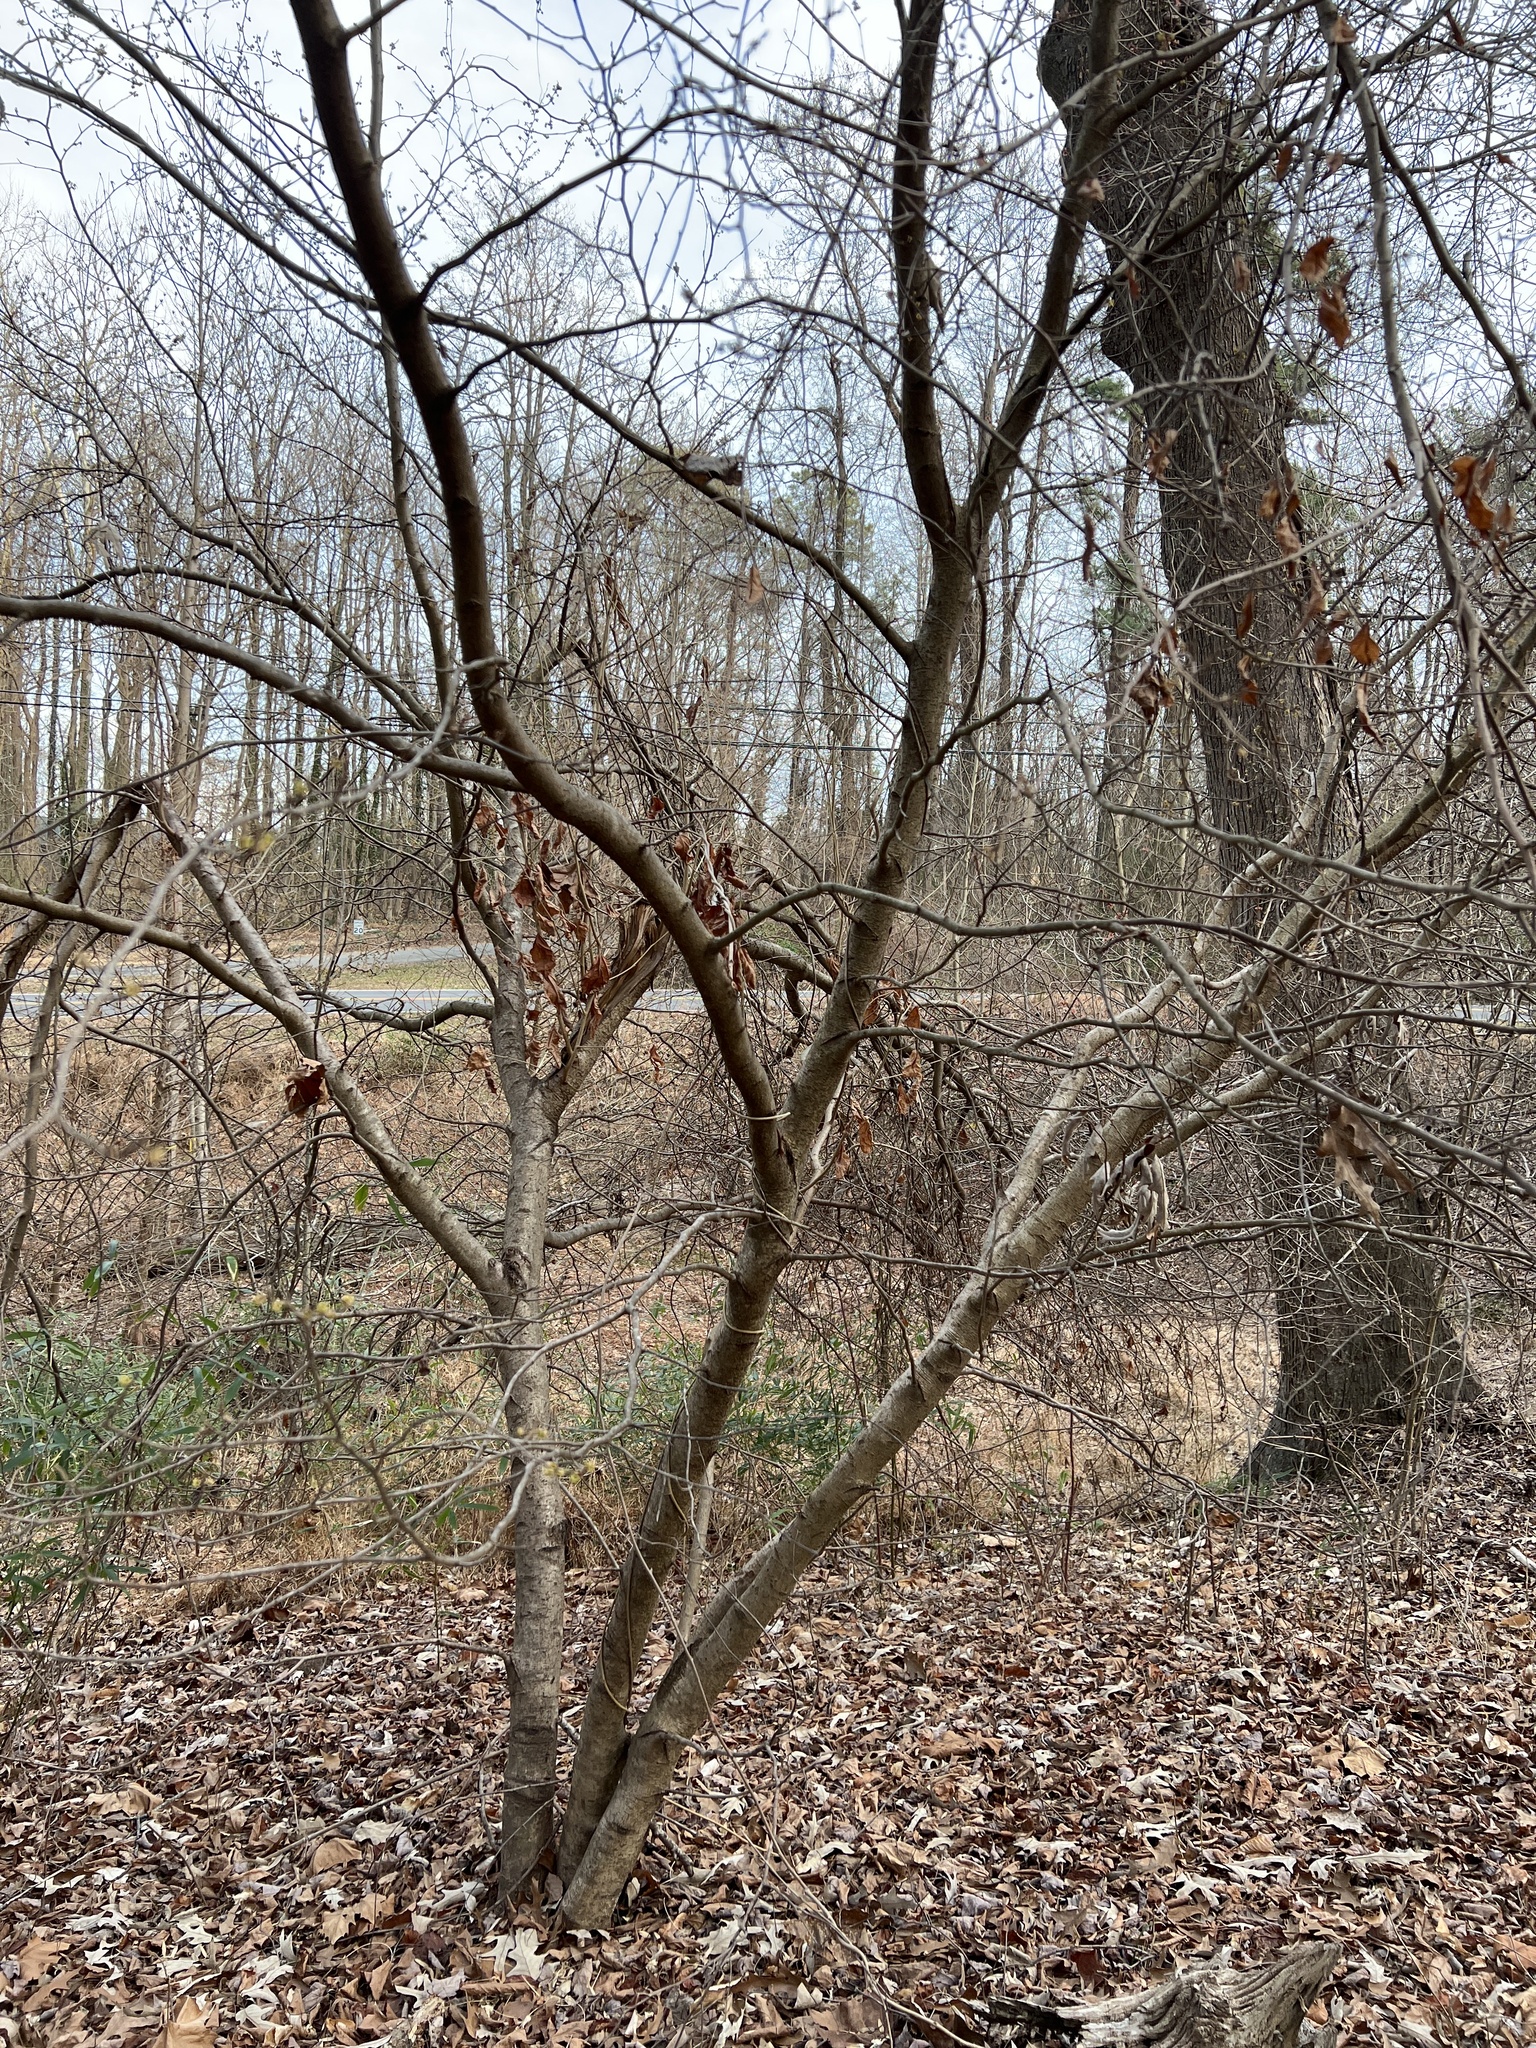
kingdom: Plantae
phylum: Tracheophyta
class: Magnoliopsida
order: Saxifragales
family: Hamamelidaceae
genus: Hamamelis
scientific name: Hamamelis virginiana
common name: Witch-hazel
